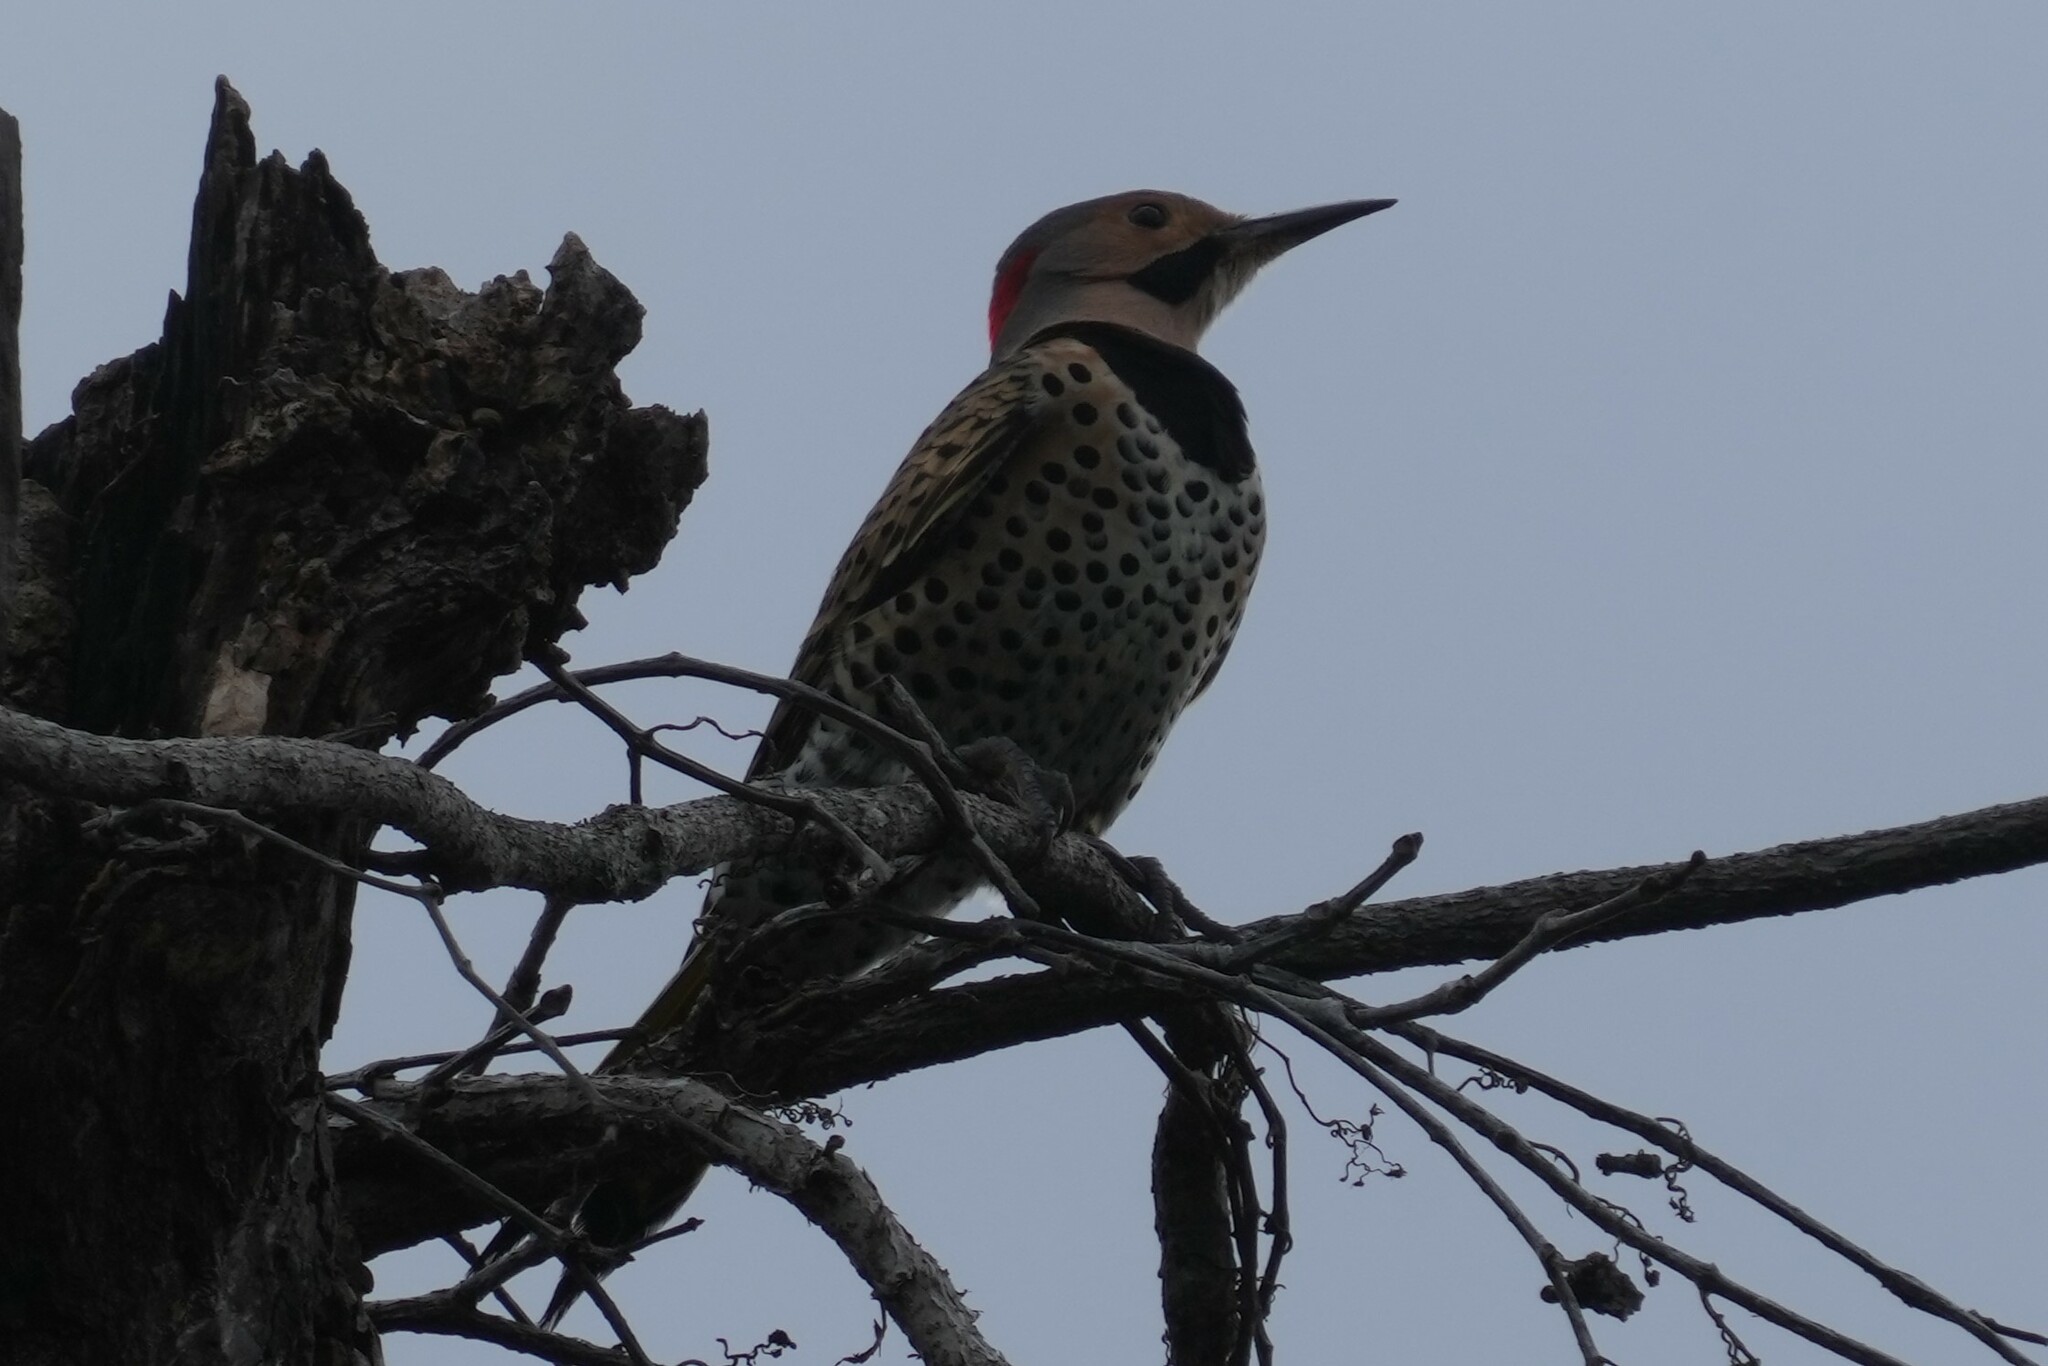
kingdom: Animalia
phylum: Chordata
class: Aves
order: Piciformes
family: Picidae
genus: Colaptes
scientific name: Colaptes auratus
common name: Northern flicker
